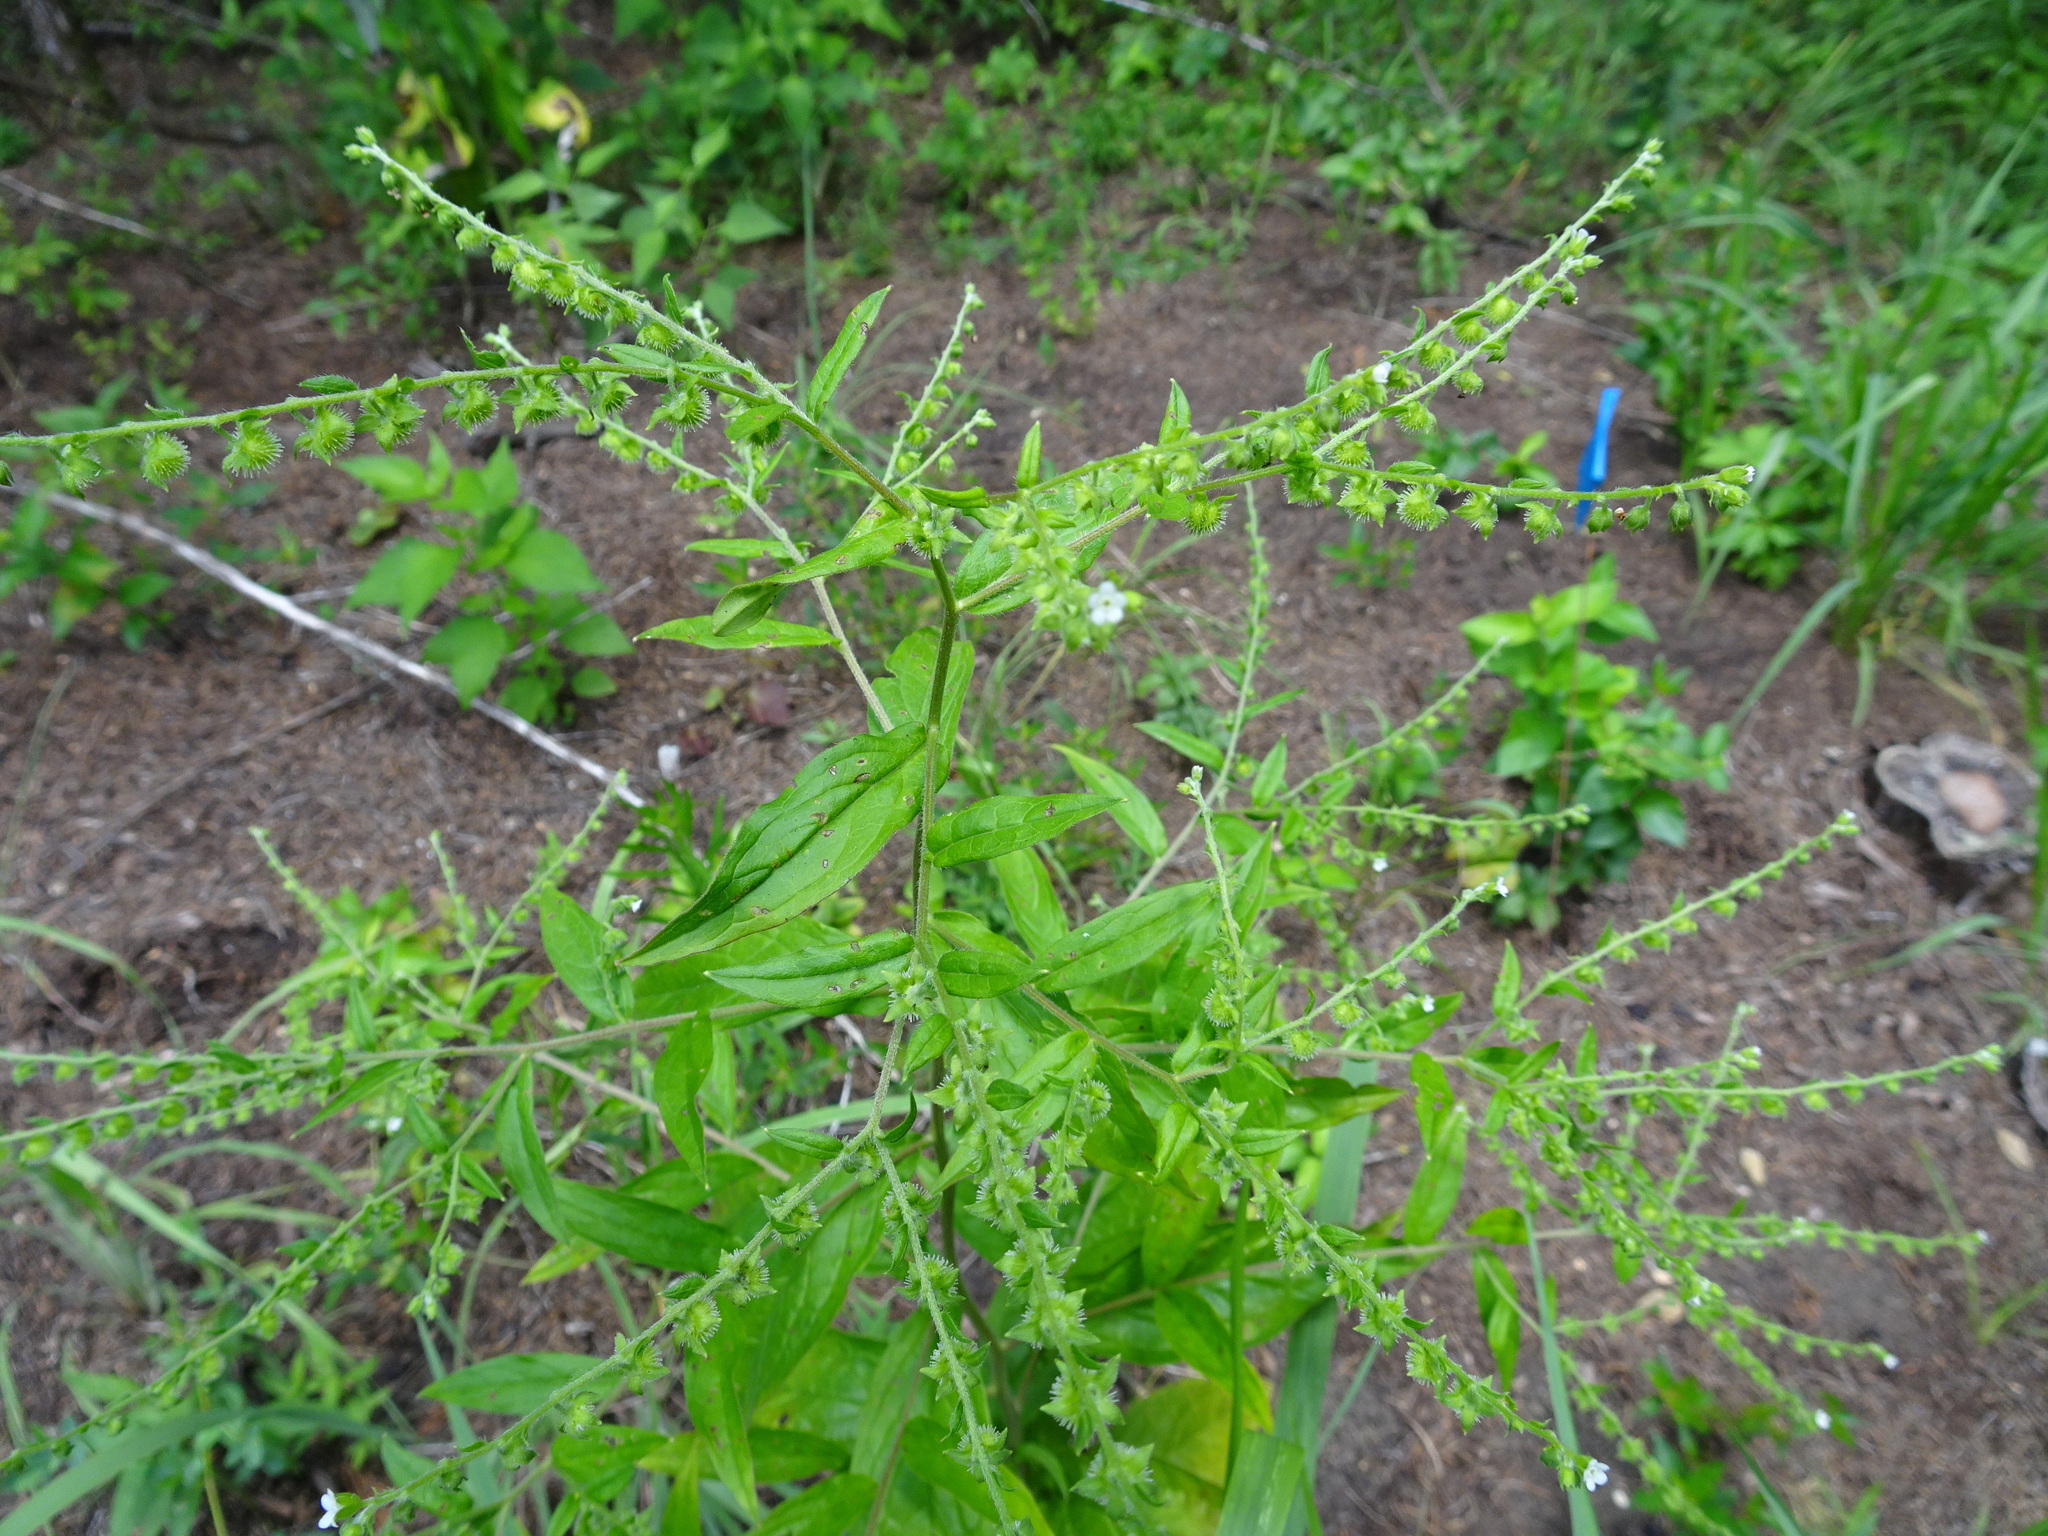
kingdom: Plantae
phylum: Tracheophyta
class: Magnoliopsida
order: Boraginales
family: Boraginaceae
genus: Hackelia
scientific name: Hackelia virginiana
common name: Beggar's-lice
